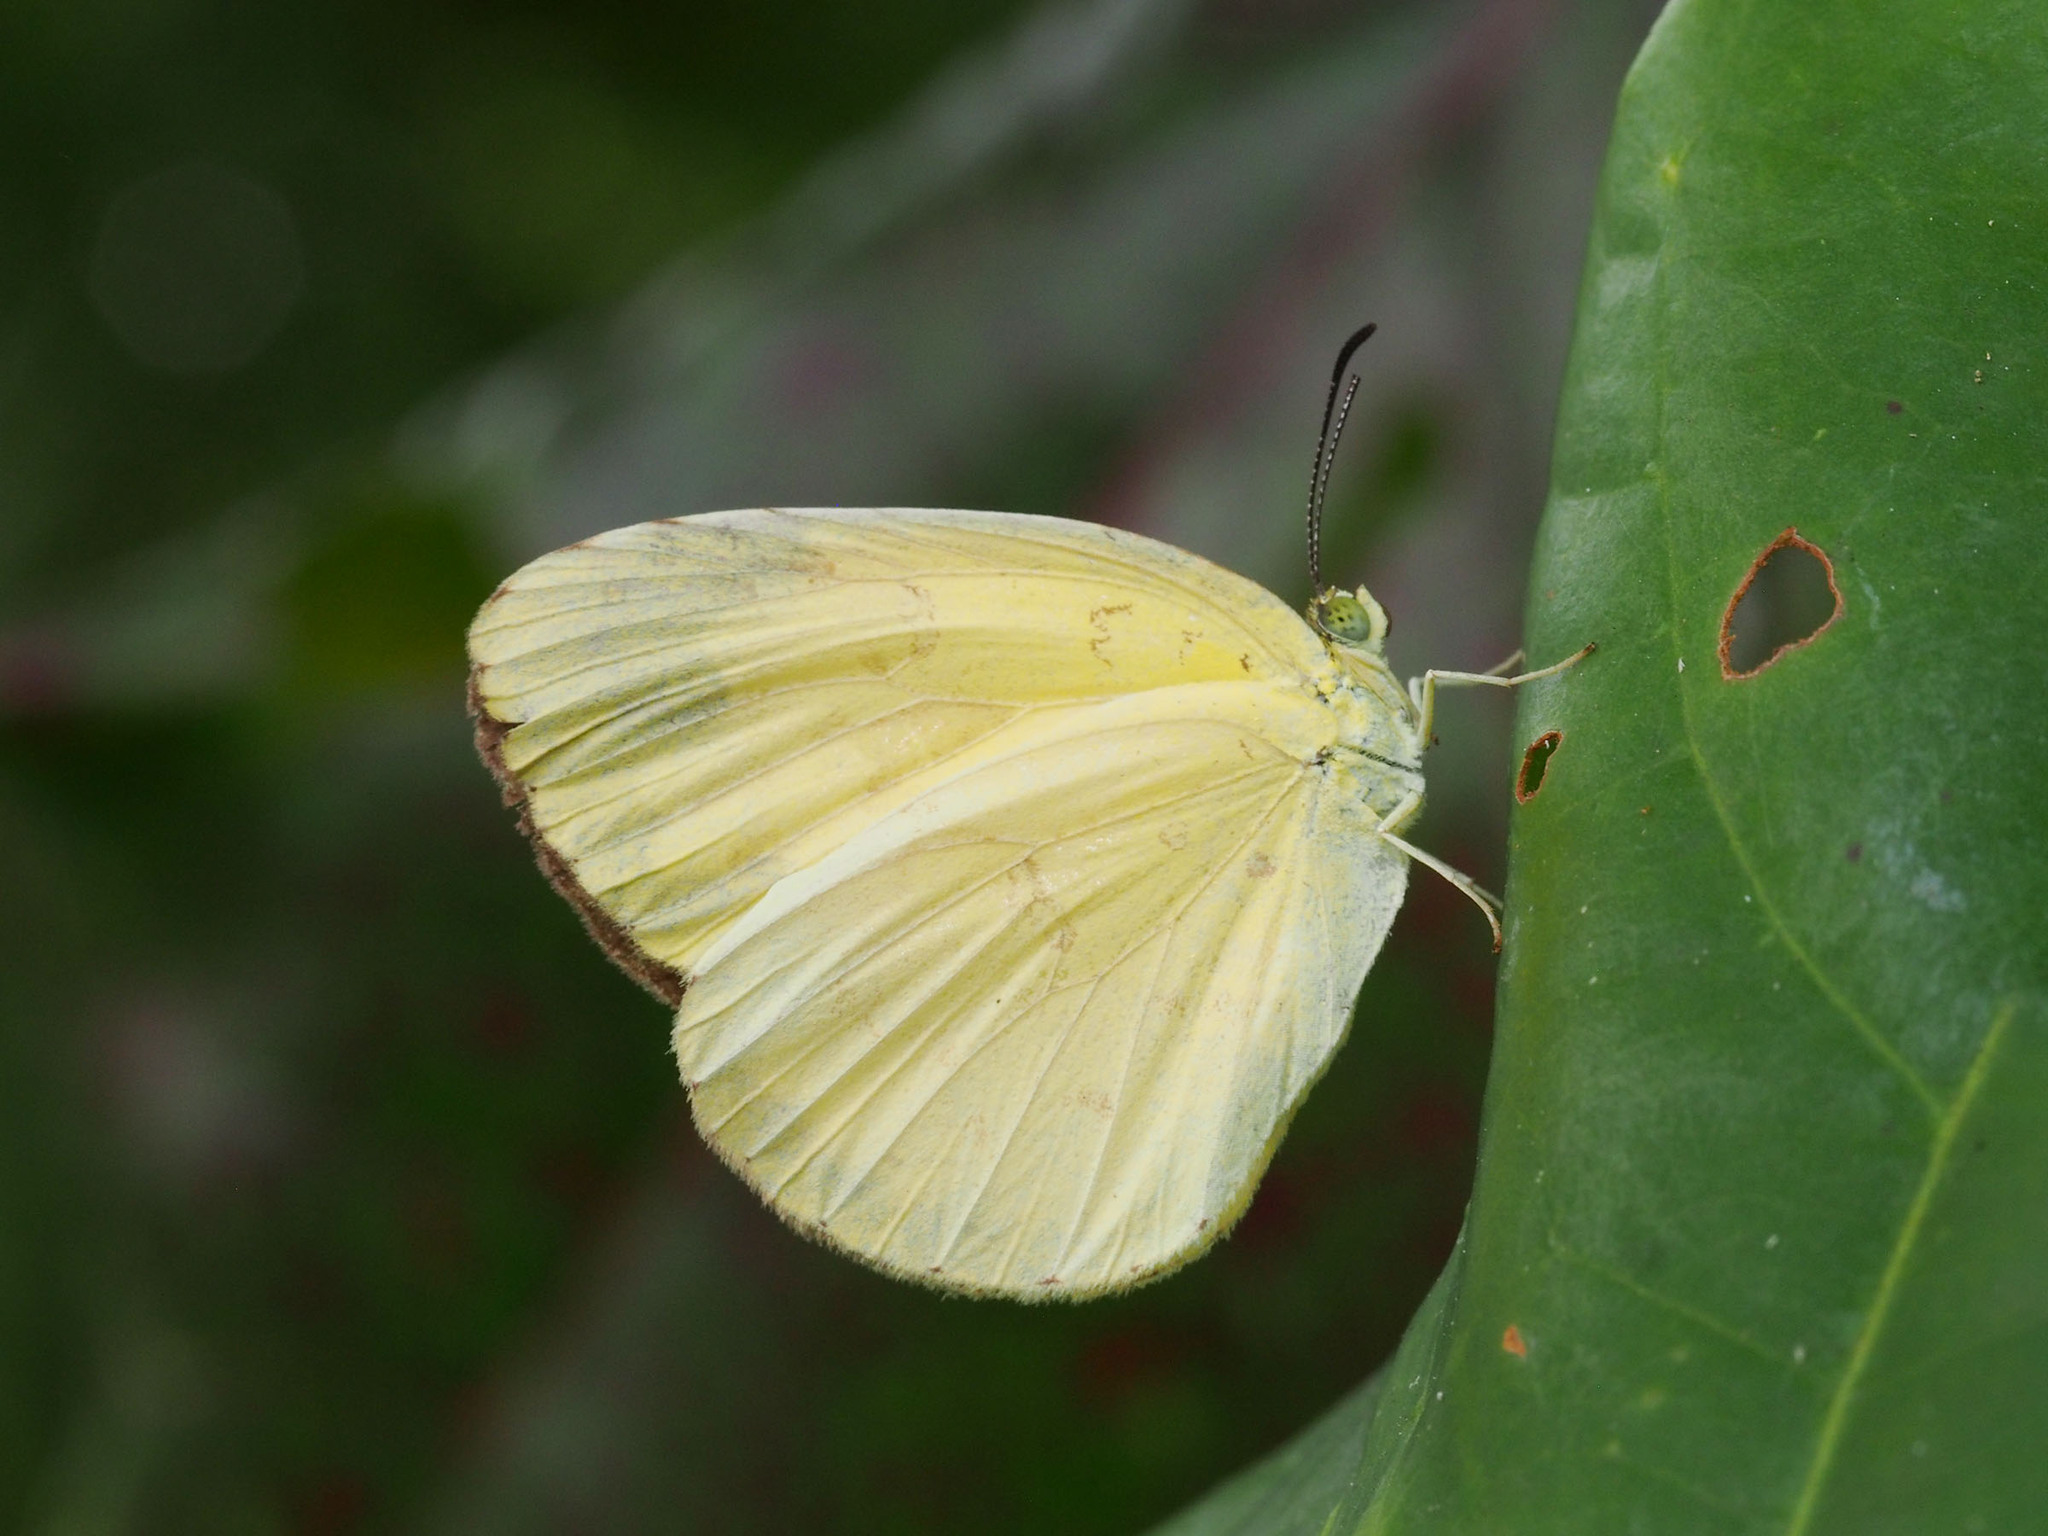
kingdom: Animalia
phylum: Arthropoda
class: Insecta
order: Lepidoptera
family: Pieridae
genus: Eurema
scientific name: Eurema blanda
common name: Three-spot grass yellow
